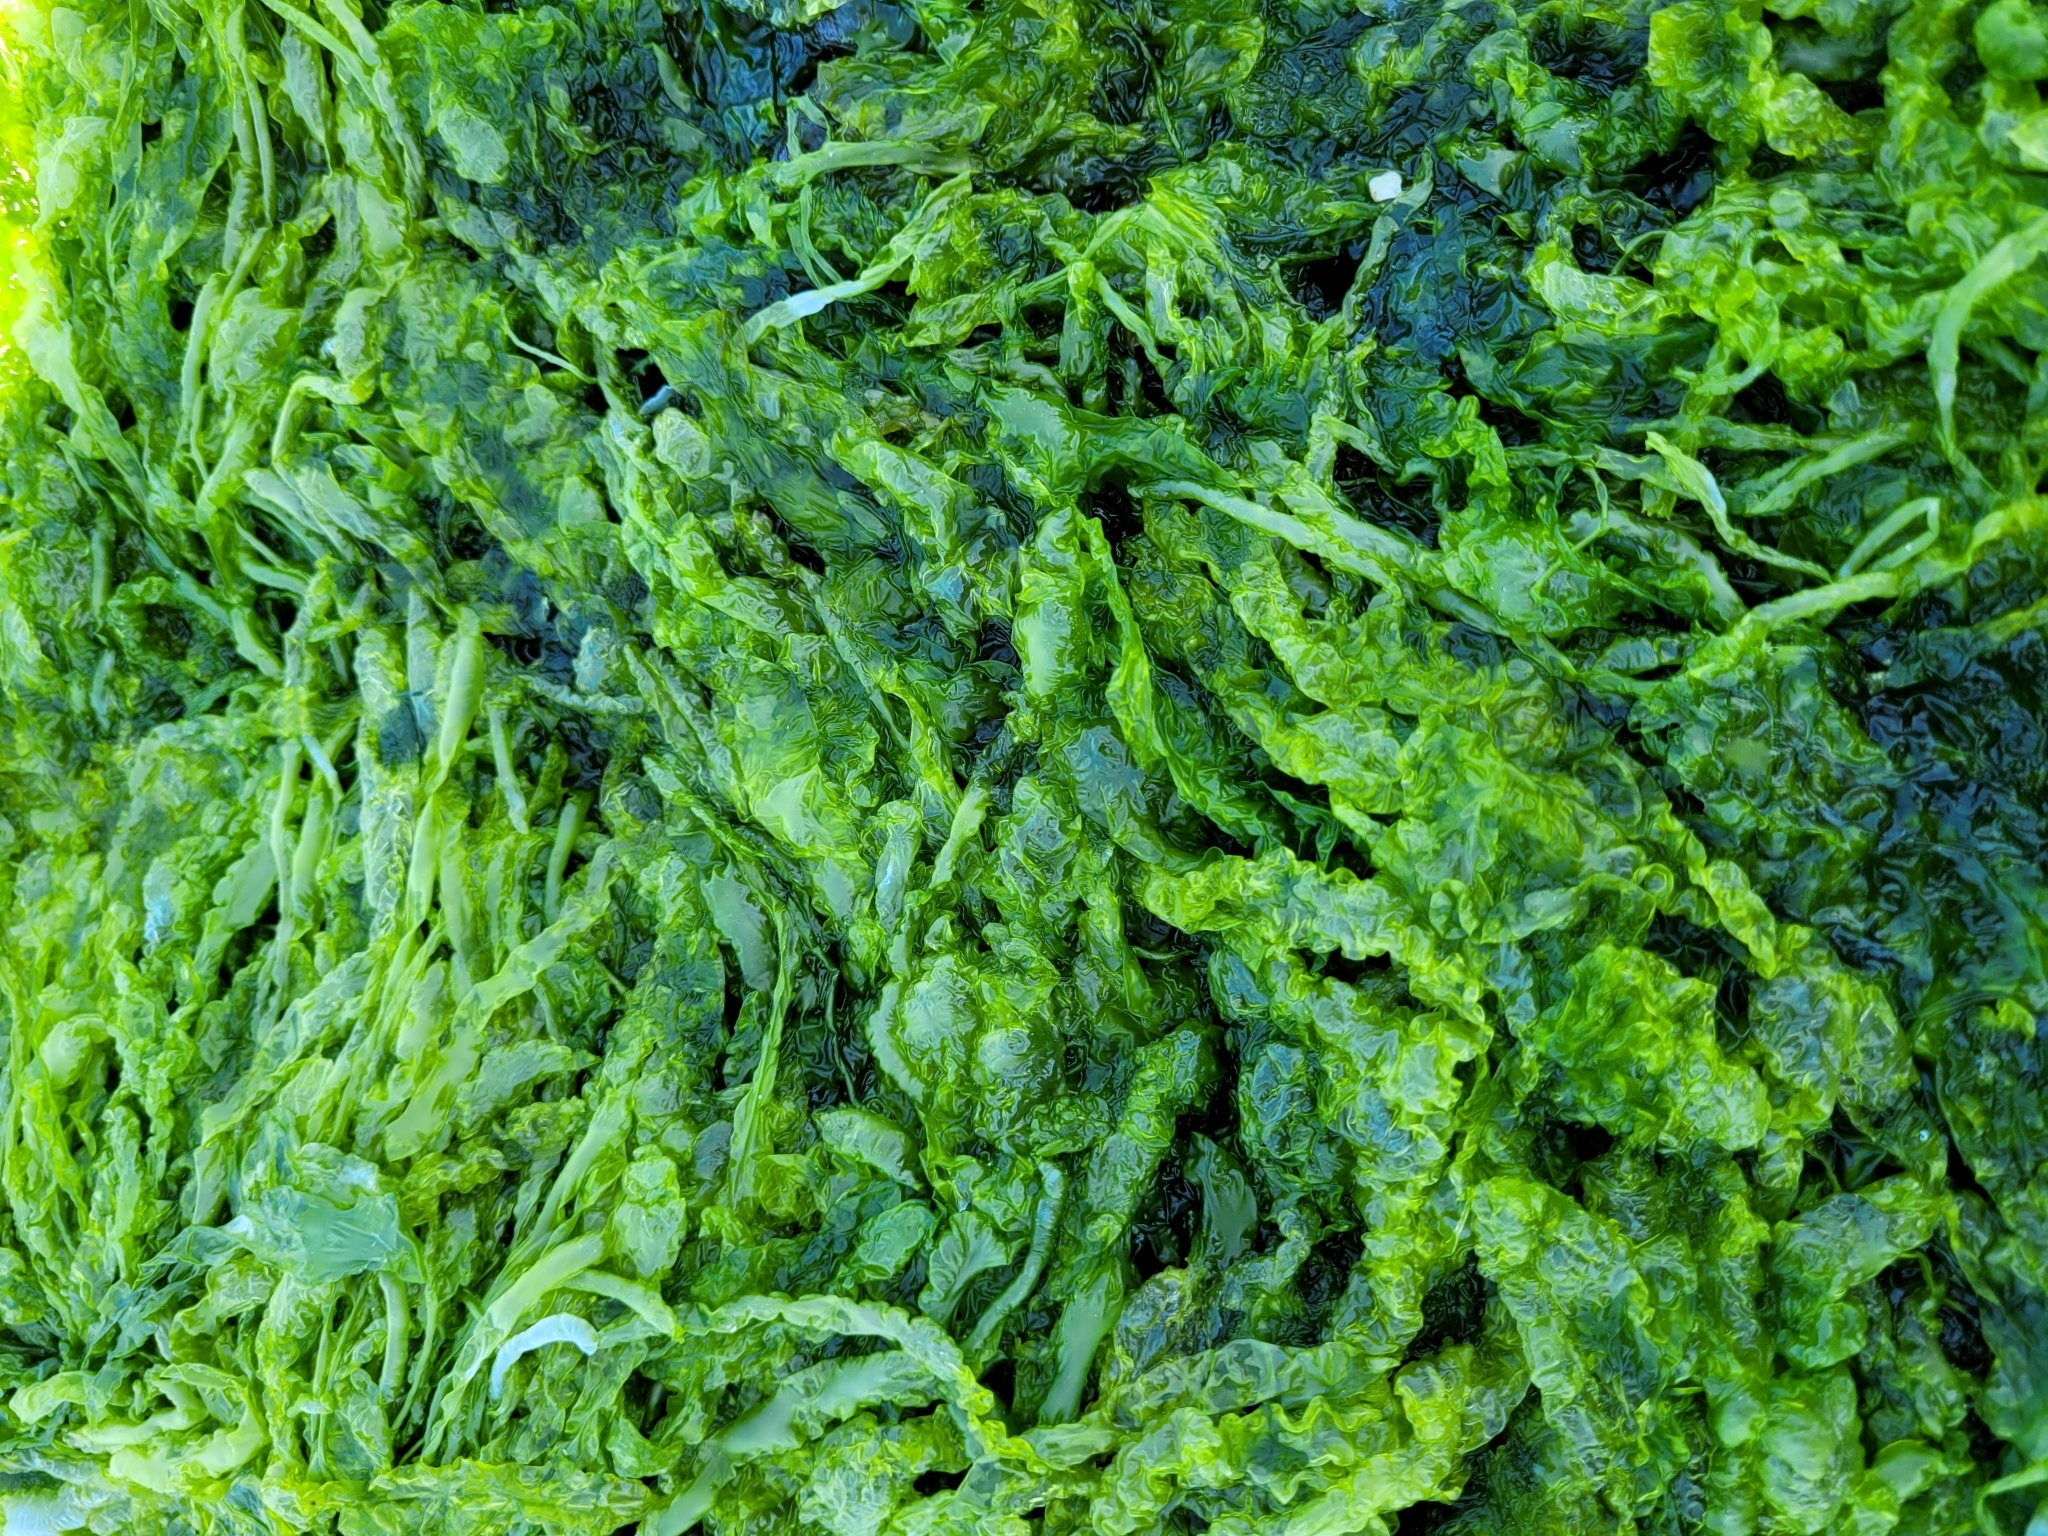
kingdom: Plantae
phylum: Chlorophyta
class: Ulvophyceae
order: Ulvales
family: Ulvaceae
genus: Ulva
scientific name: Ulva intestinalis
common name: Gut weed
